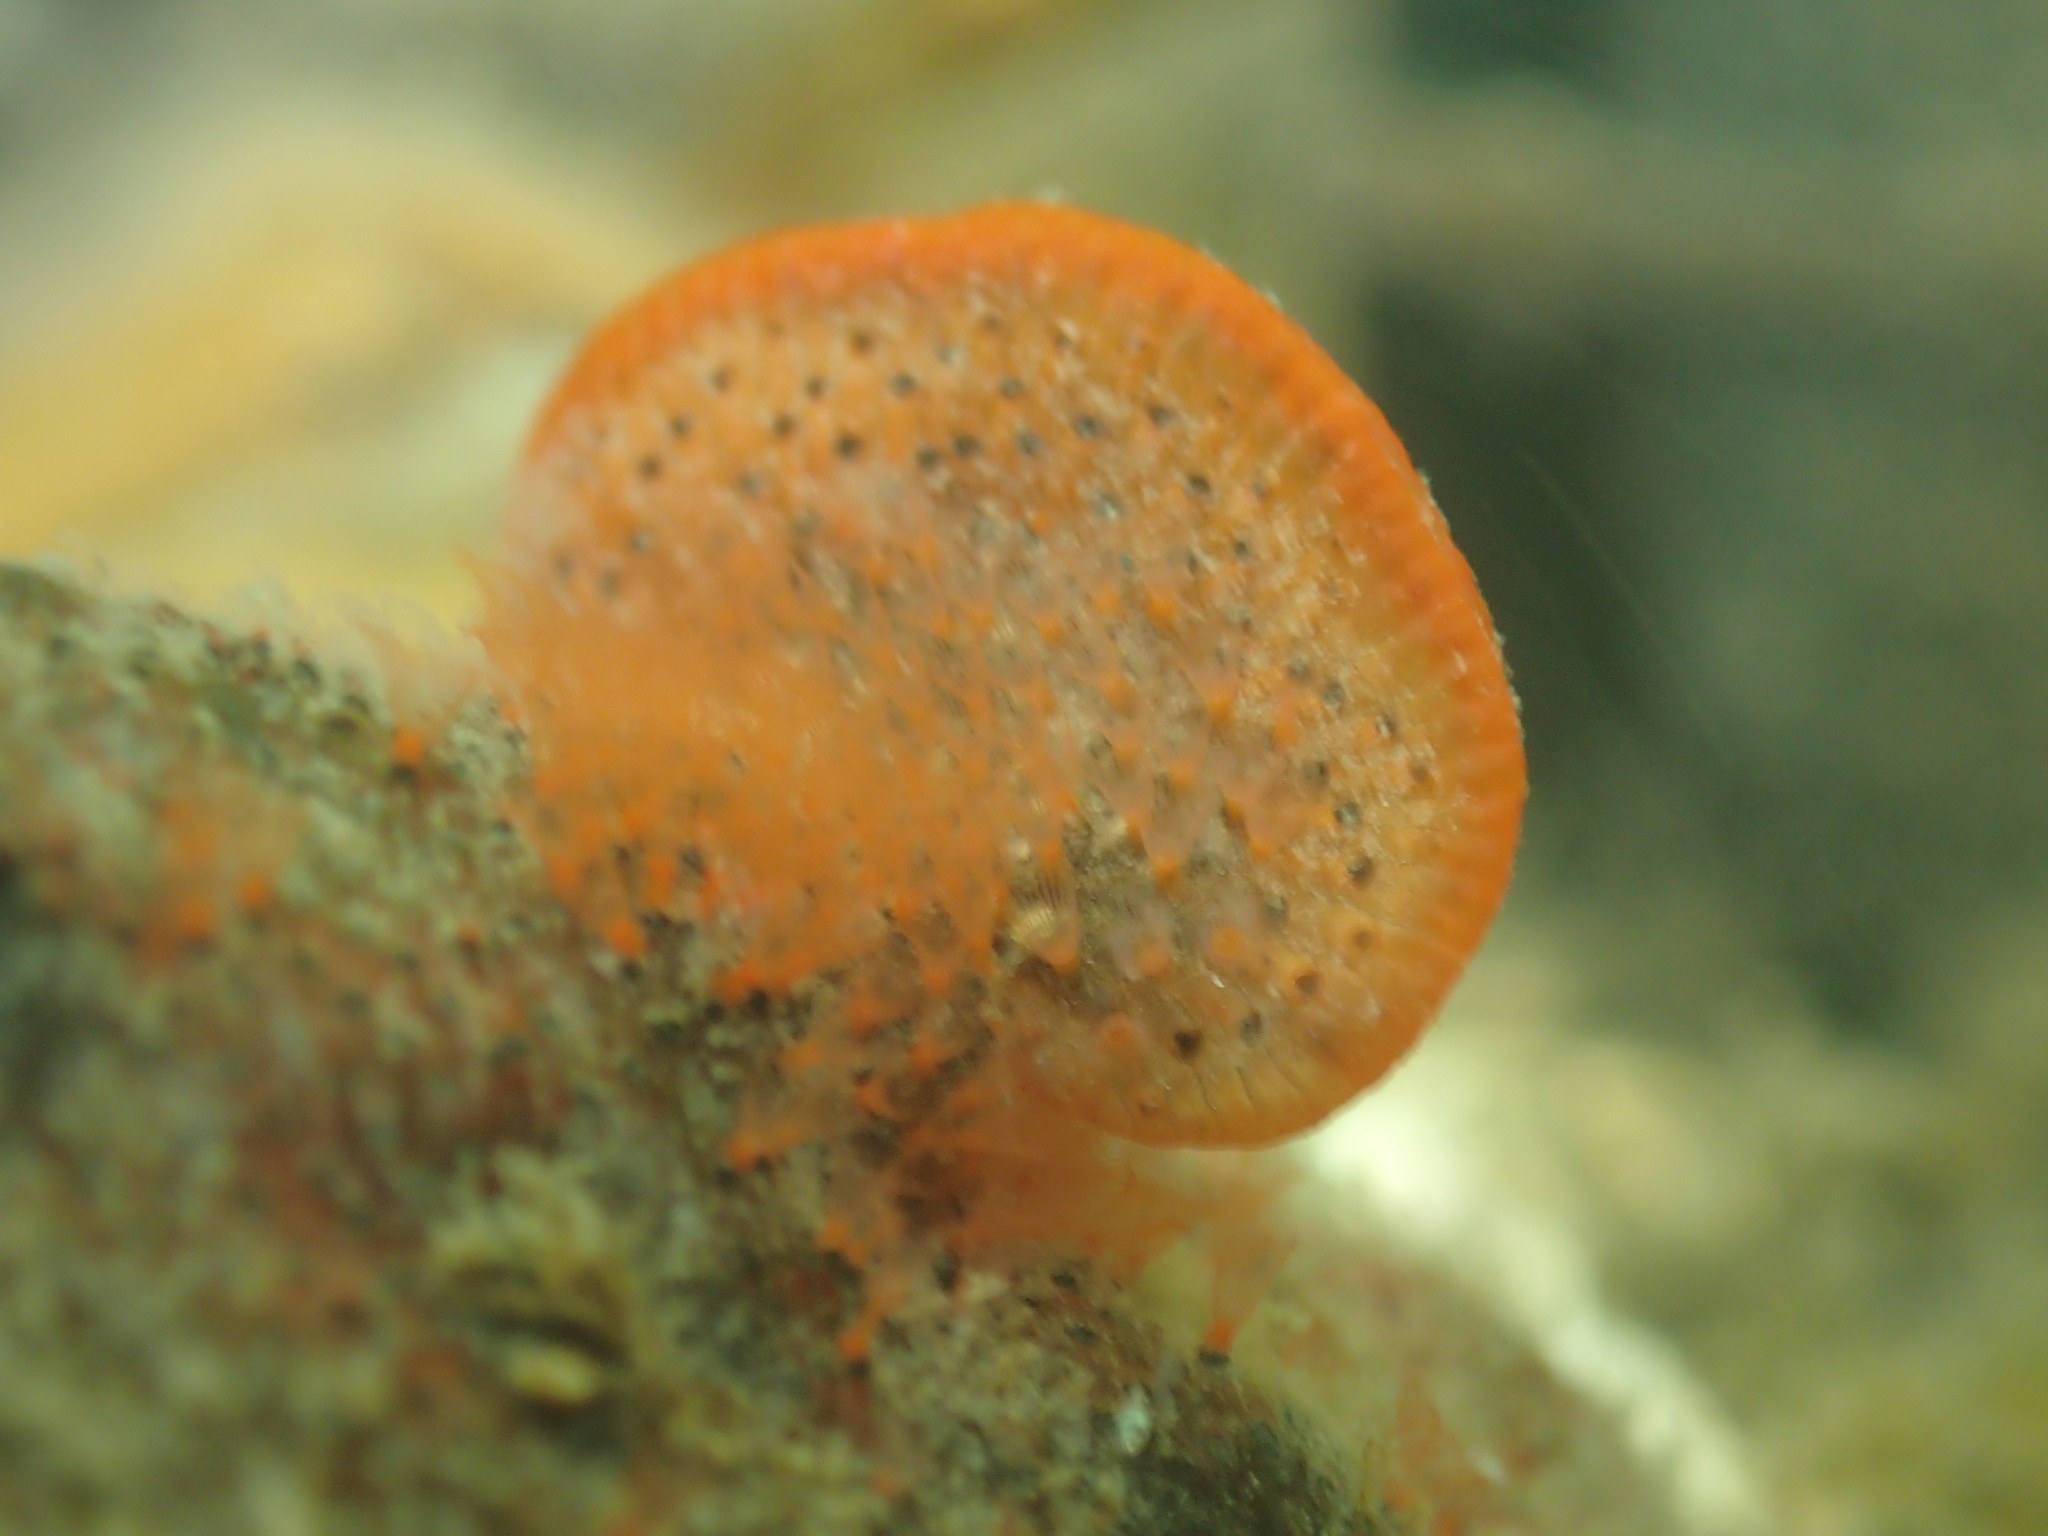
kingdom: Animalia
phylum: Bryozoa
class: Gymnolaemata
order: Cheilostomatida
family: Watersiporidae
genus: Watersipora
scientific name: Watersipora subtorquata
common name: Bryozoan
